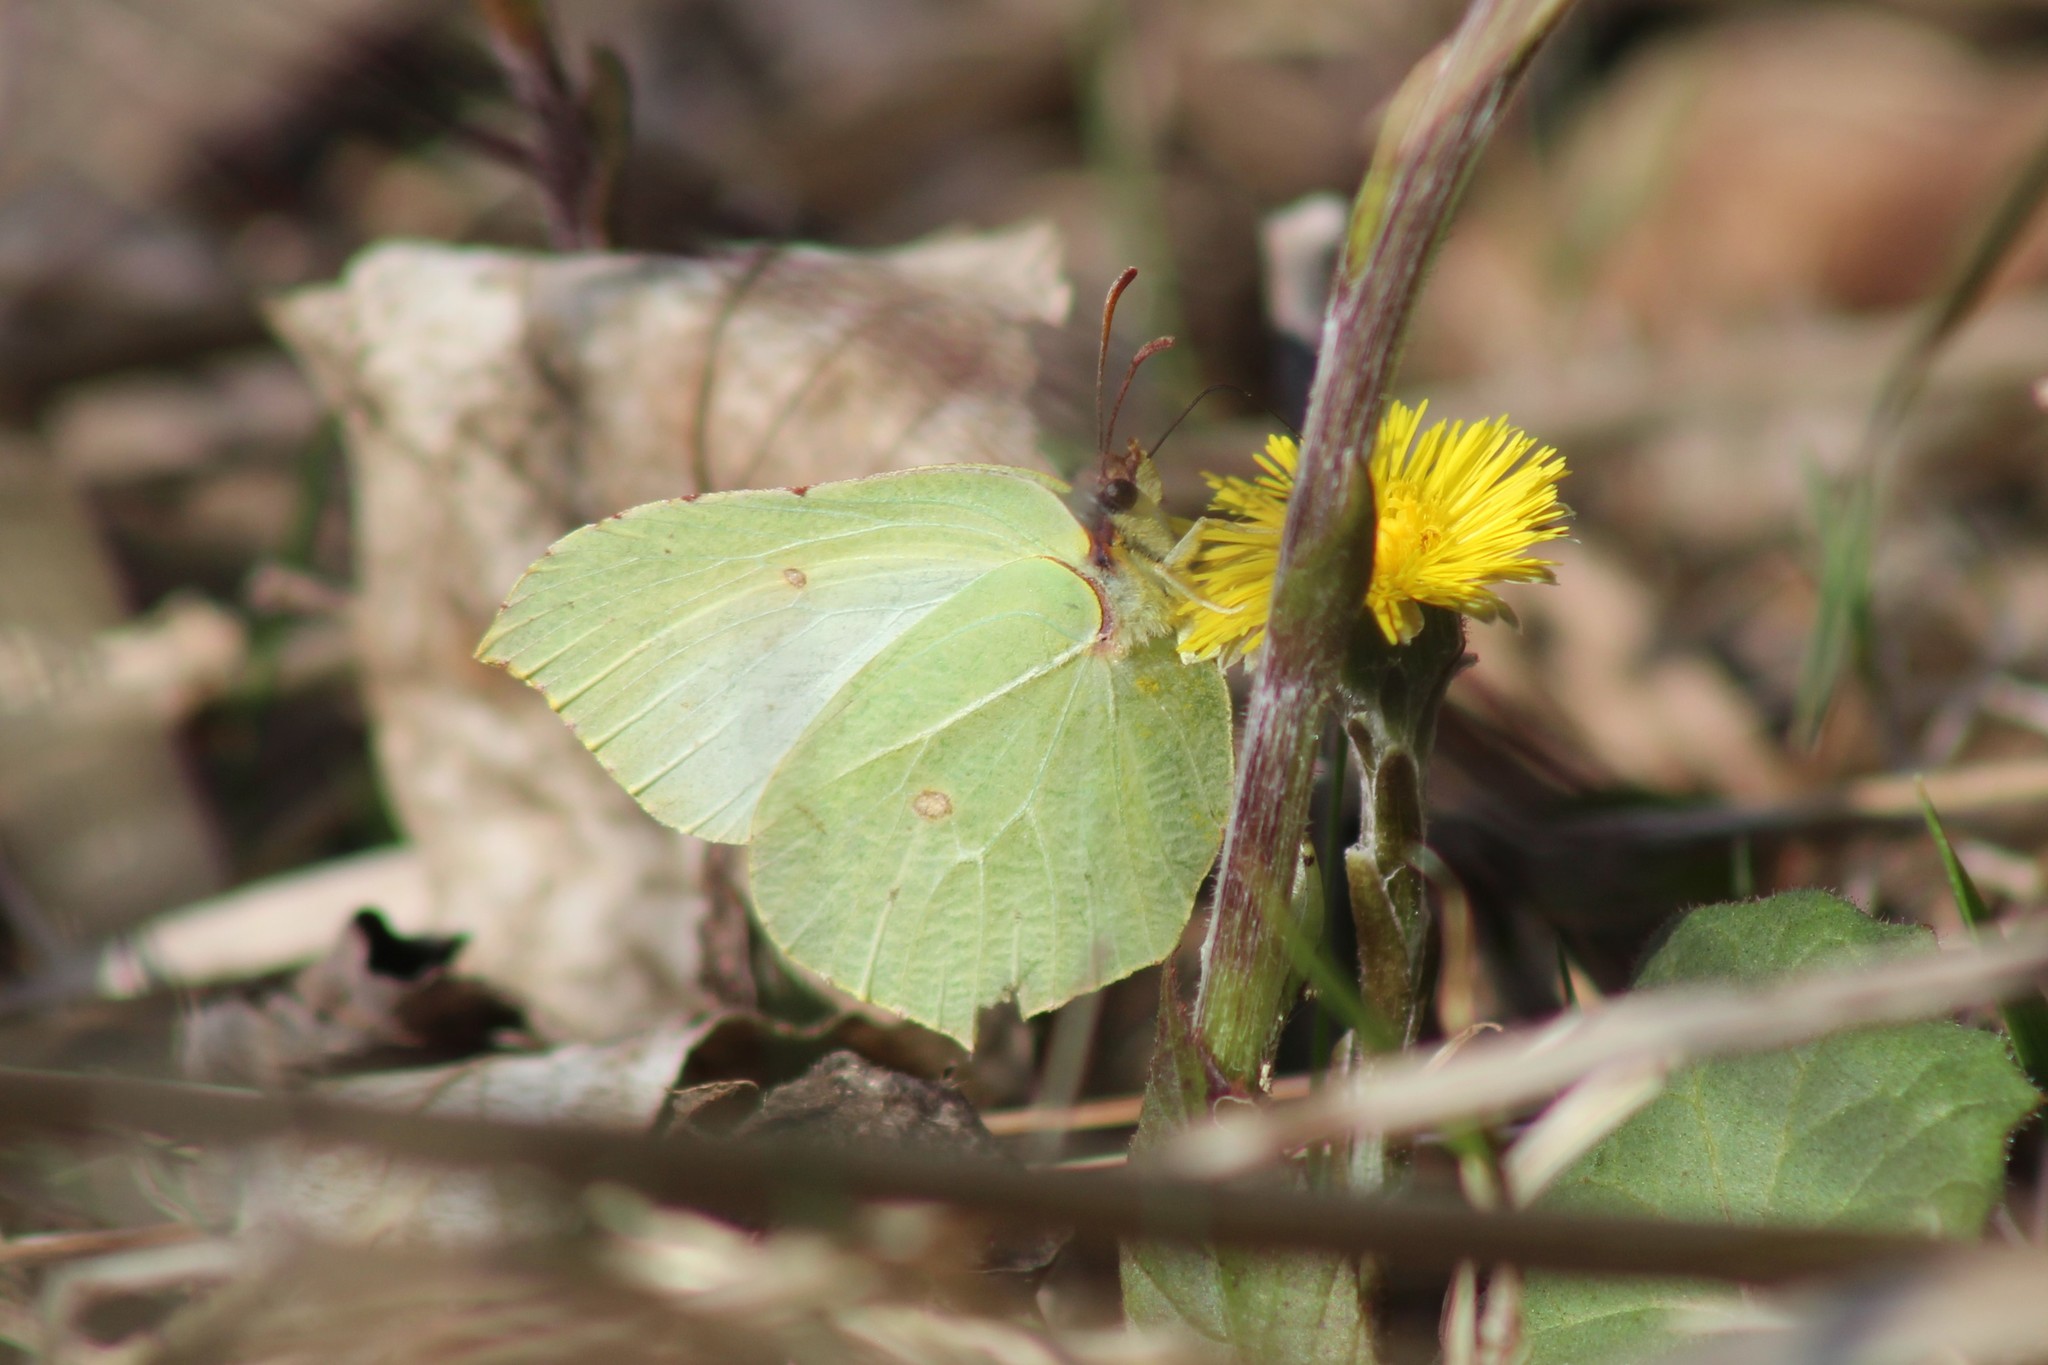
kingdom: Animalia
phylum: Arthropoda
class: Insecta
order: Lepidoptera
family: Pieridae
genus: Gonepteryx
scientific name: Gonepteryx rhamni
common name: Brimstone
